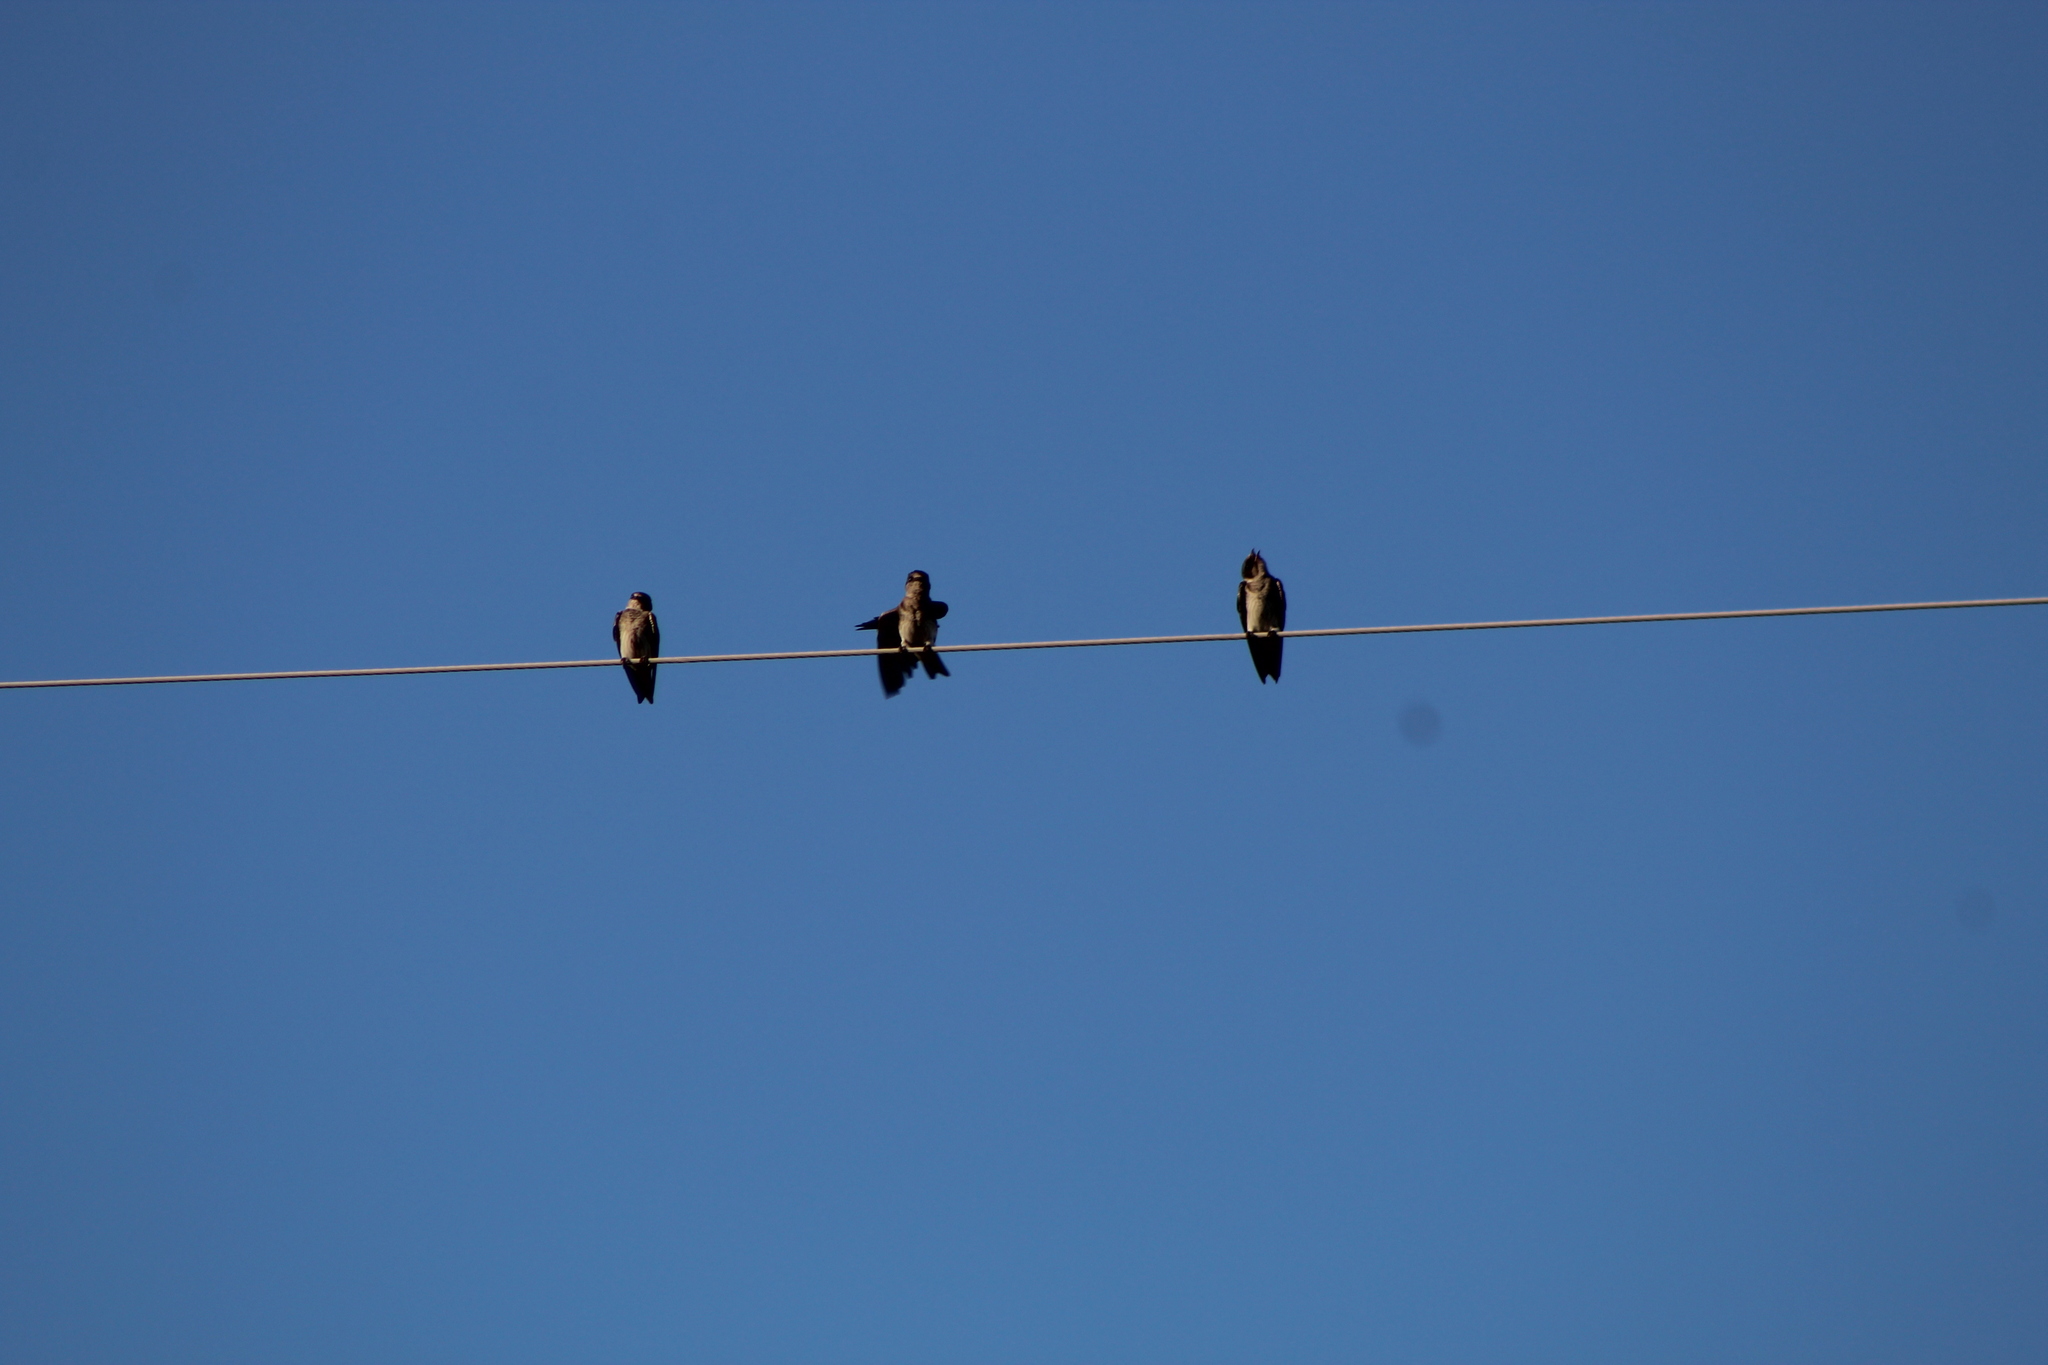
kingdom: Animalia
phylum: Chordata
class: Aves
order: Passeriformes
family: Hirundinidae
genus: Progne
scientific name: Progne subis
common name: Purple martin
